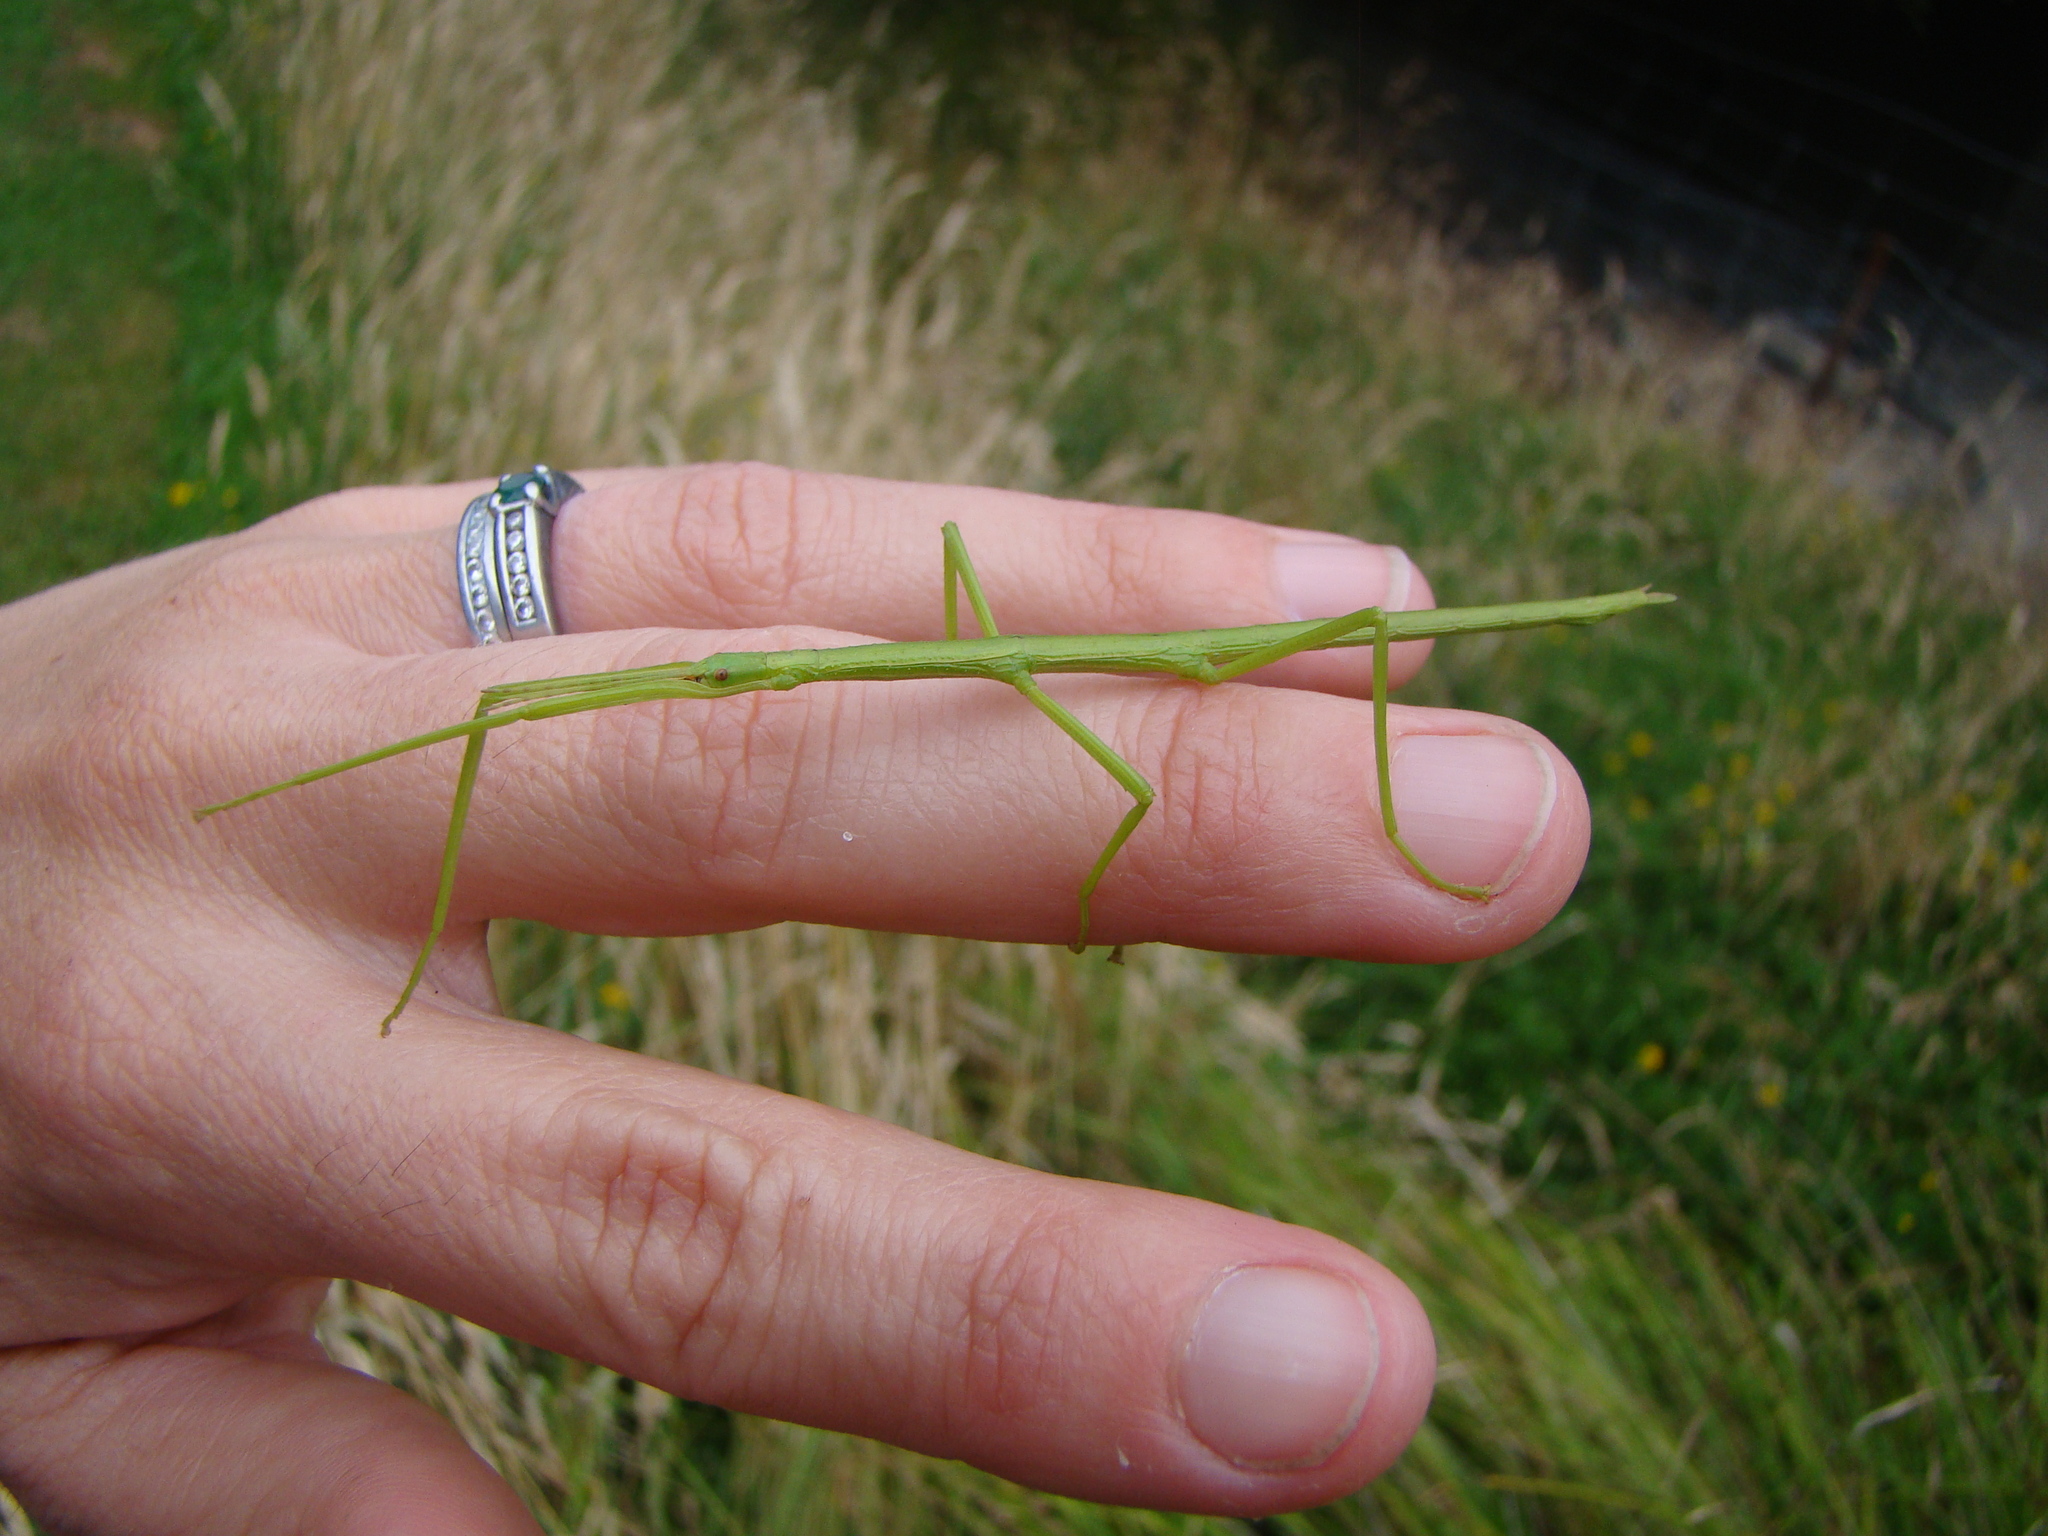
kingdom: Animalia
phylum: Arthropoda
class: Insecta
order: Phasmida
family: Phasmatidae
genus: Clitarchus
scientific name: Clitarchus hookeri
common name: Smooth stick insect
